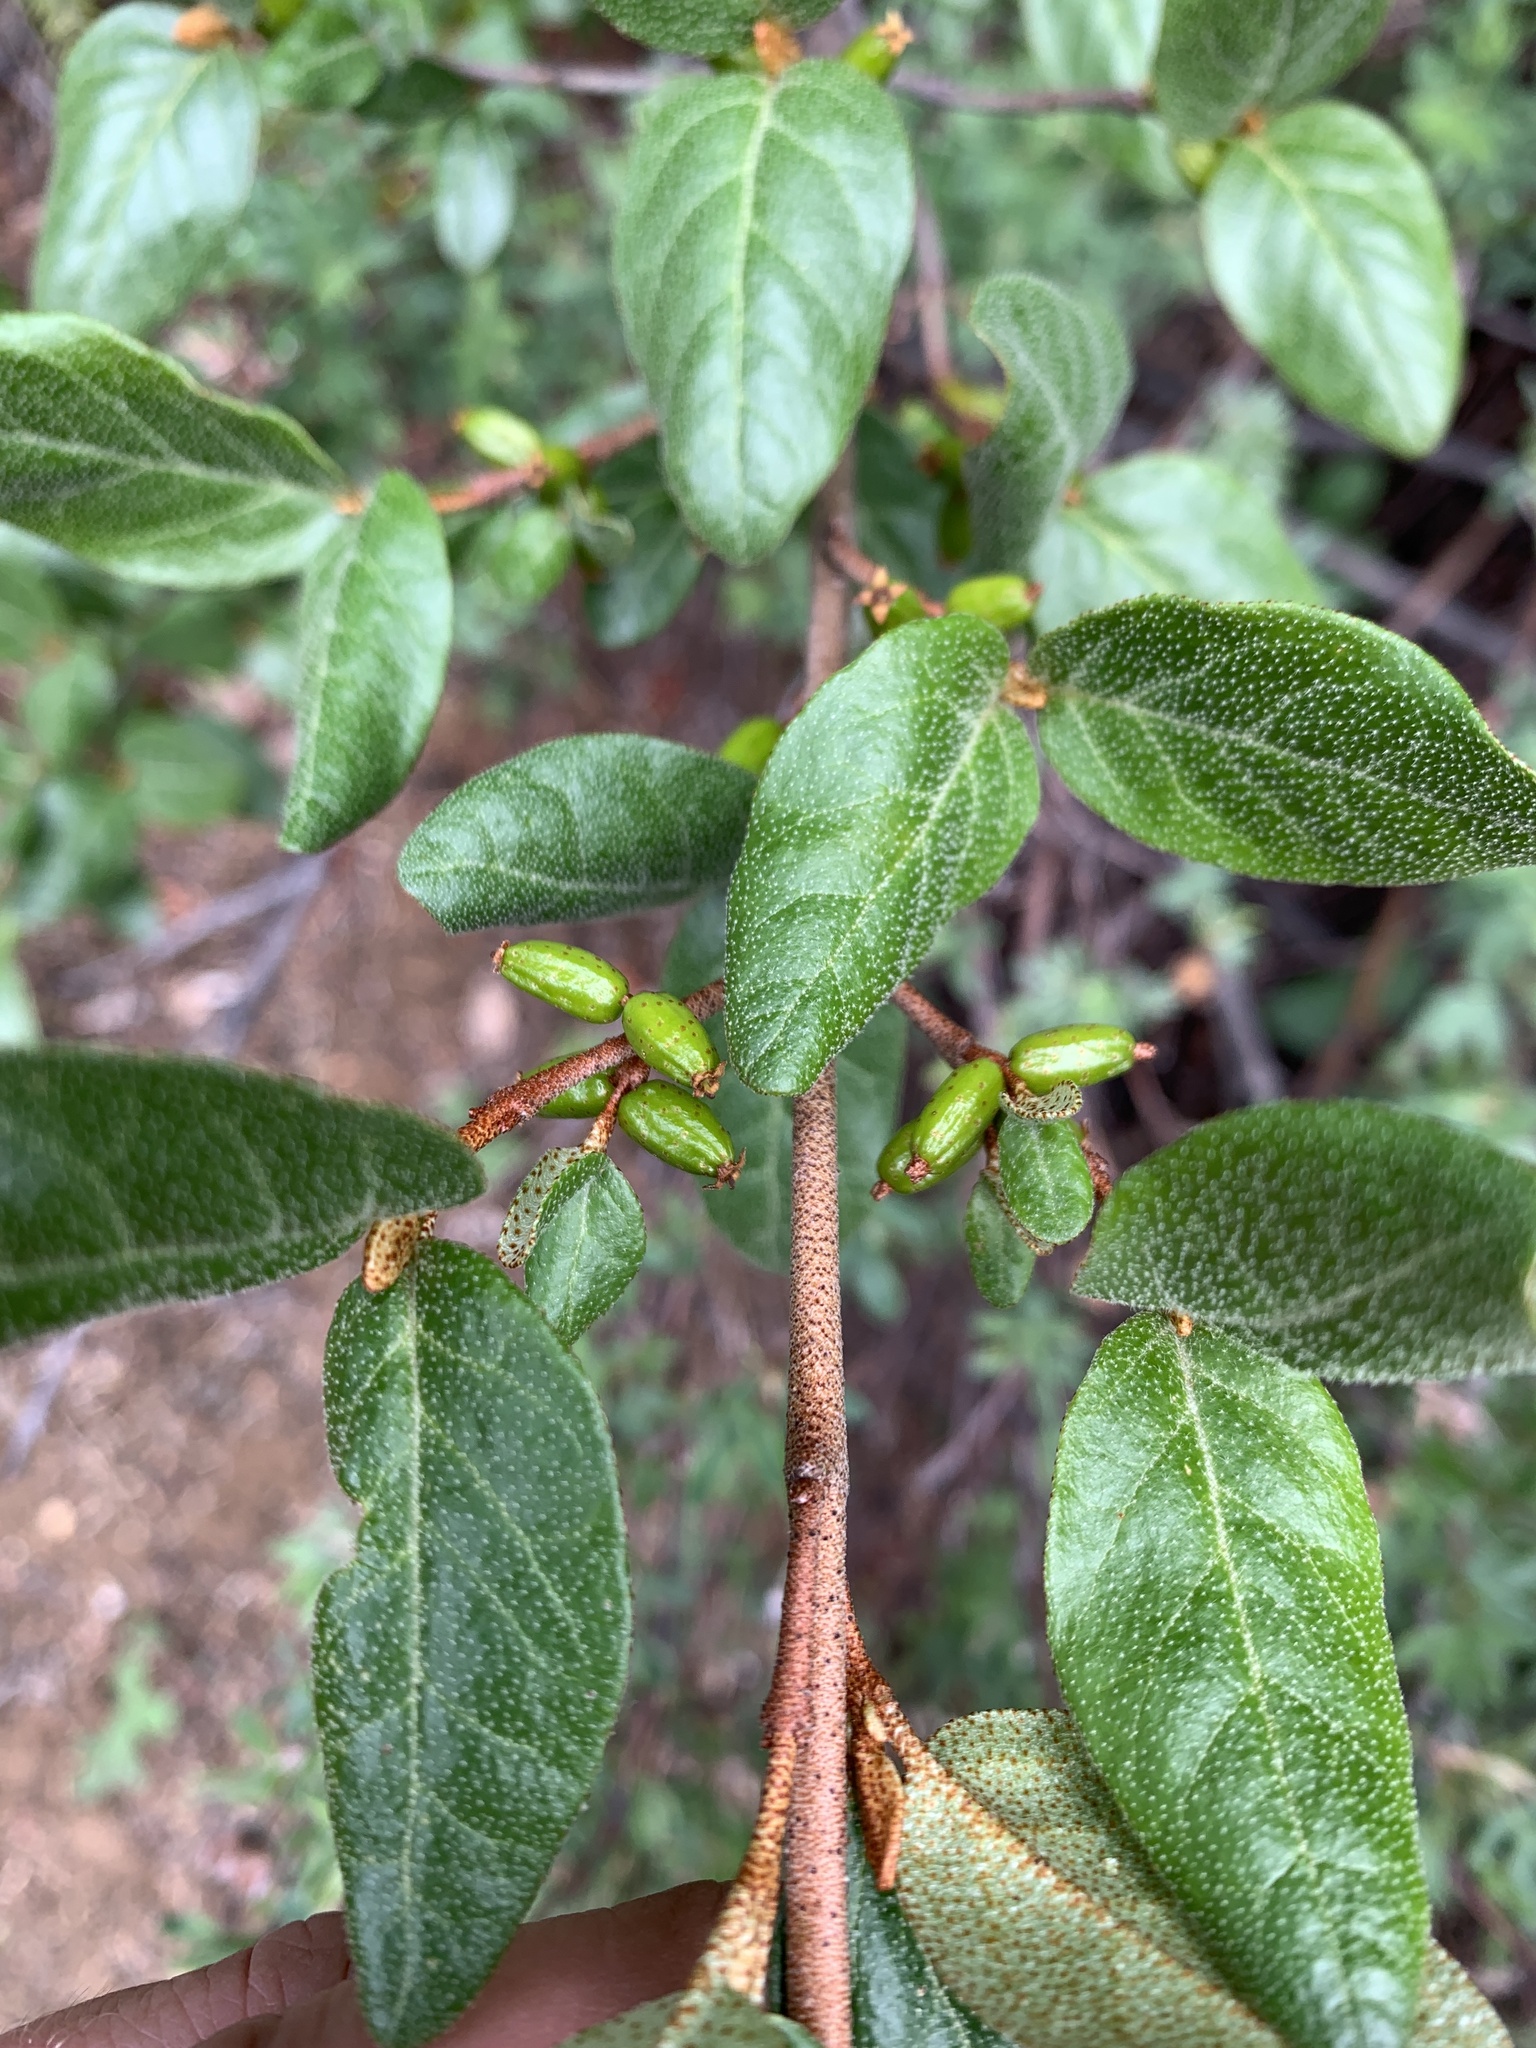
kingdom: Plantae
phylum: Tracheophyta
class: Magnoliopsida
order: Rosales
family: Elaeagnaceae
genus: Shepherdia
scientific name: Shepherdia canadensis
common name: Soapberry
